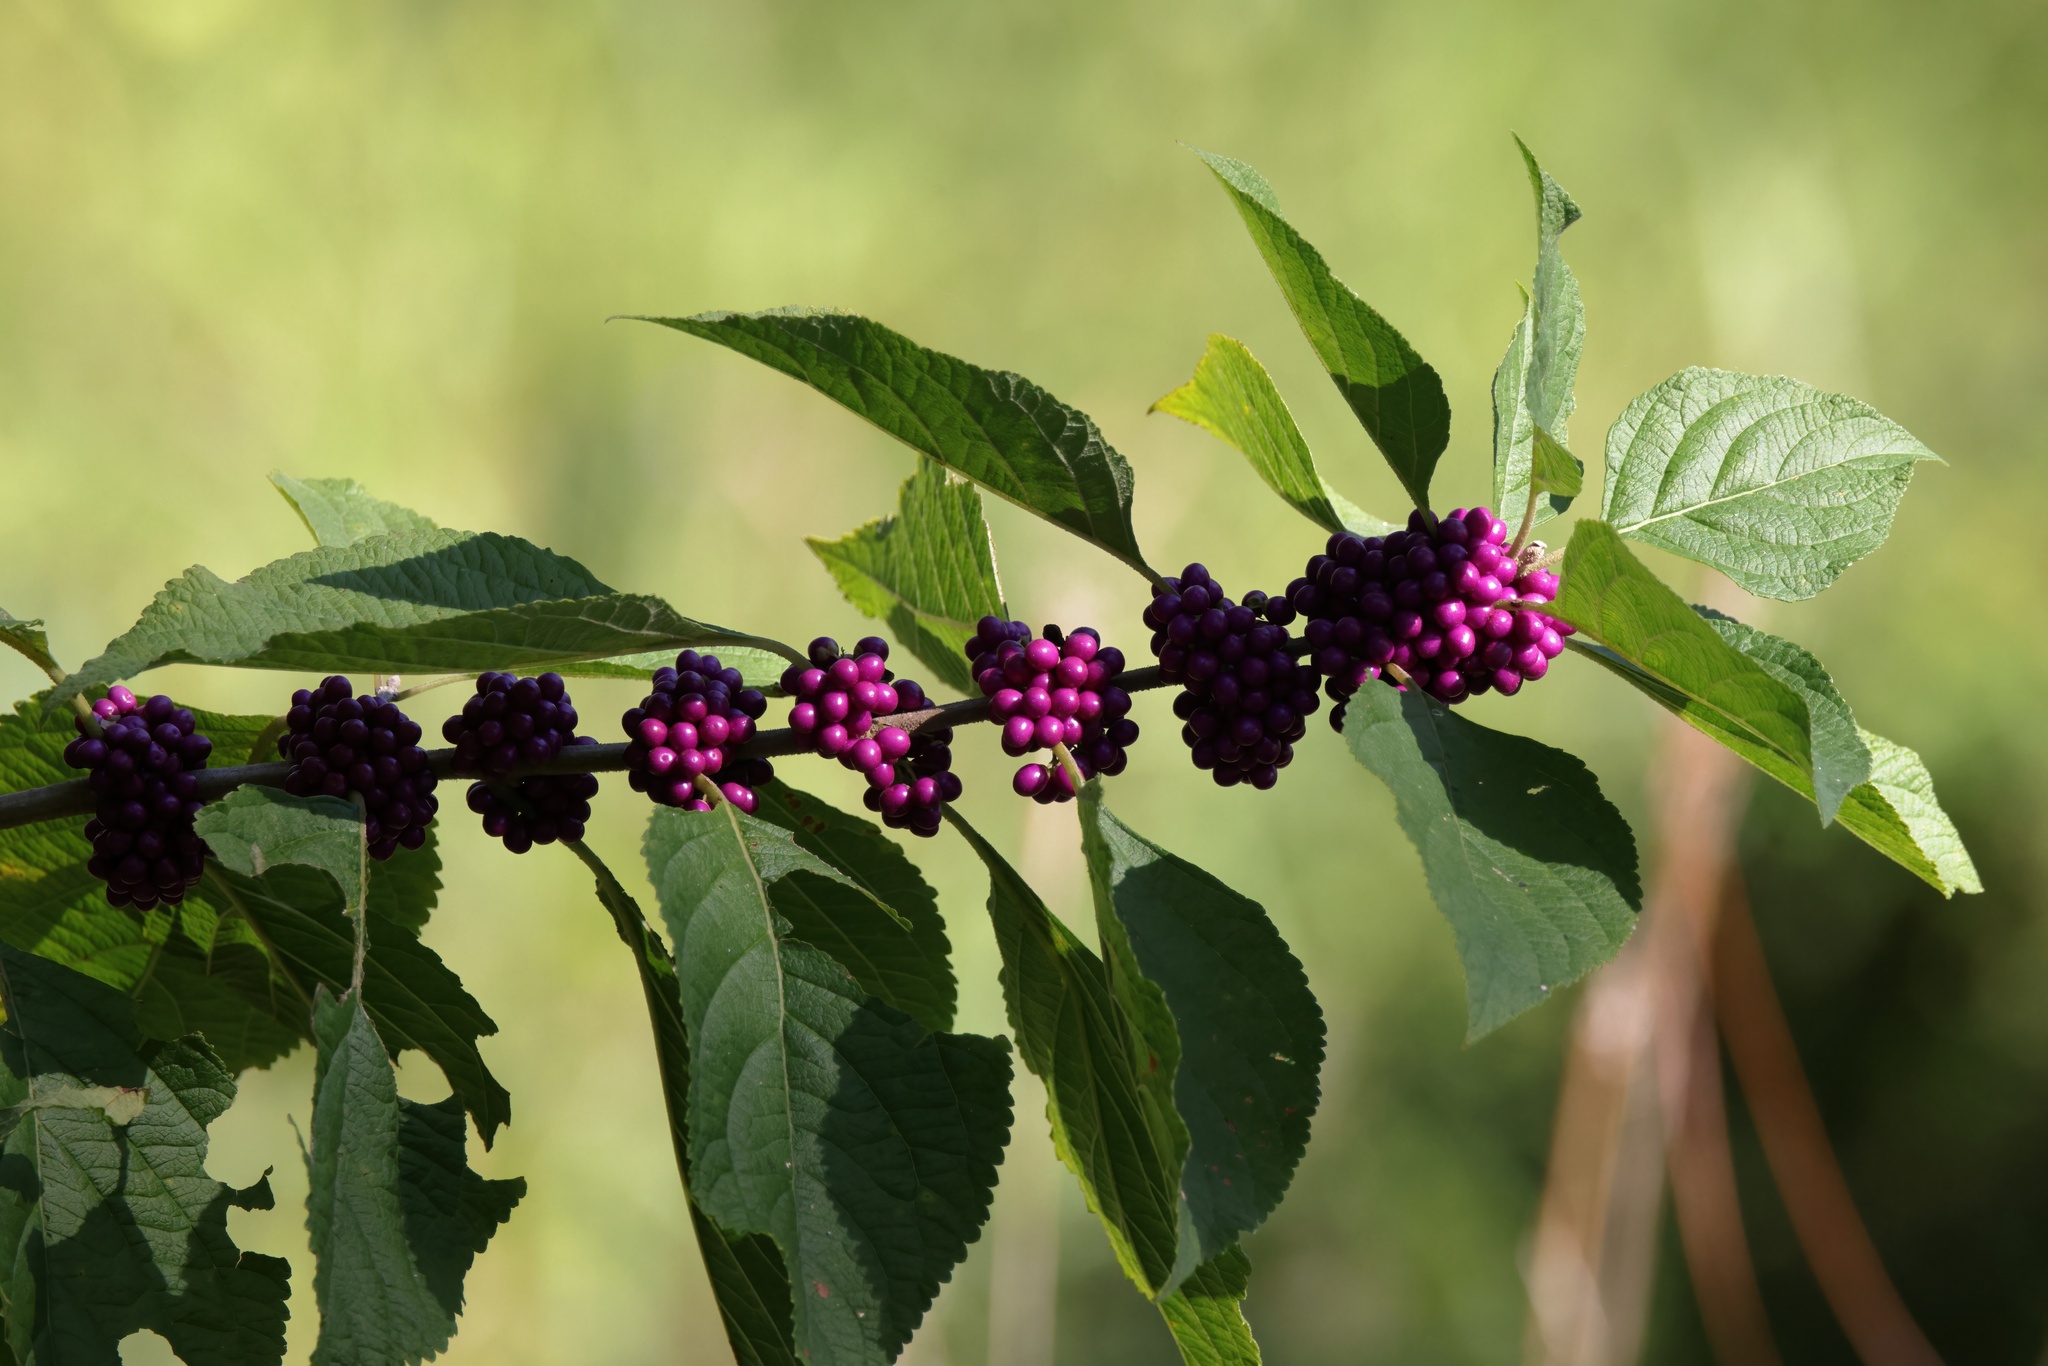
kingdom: Plantae
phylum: Tracheophyta
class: Magnoliopsida
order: Lamiales
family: Lamiaceae
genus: Callicarpa
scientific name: Callicarpa americana
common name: American beautyberry
